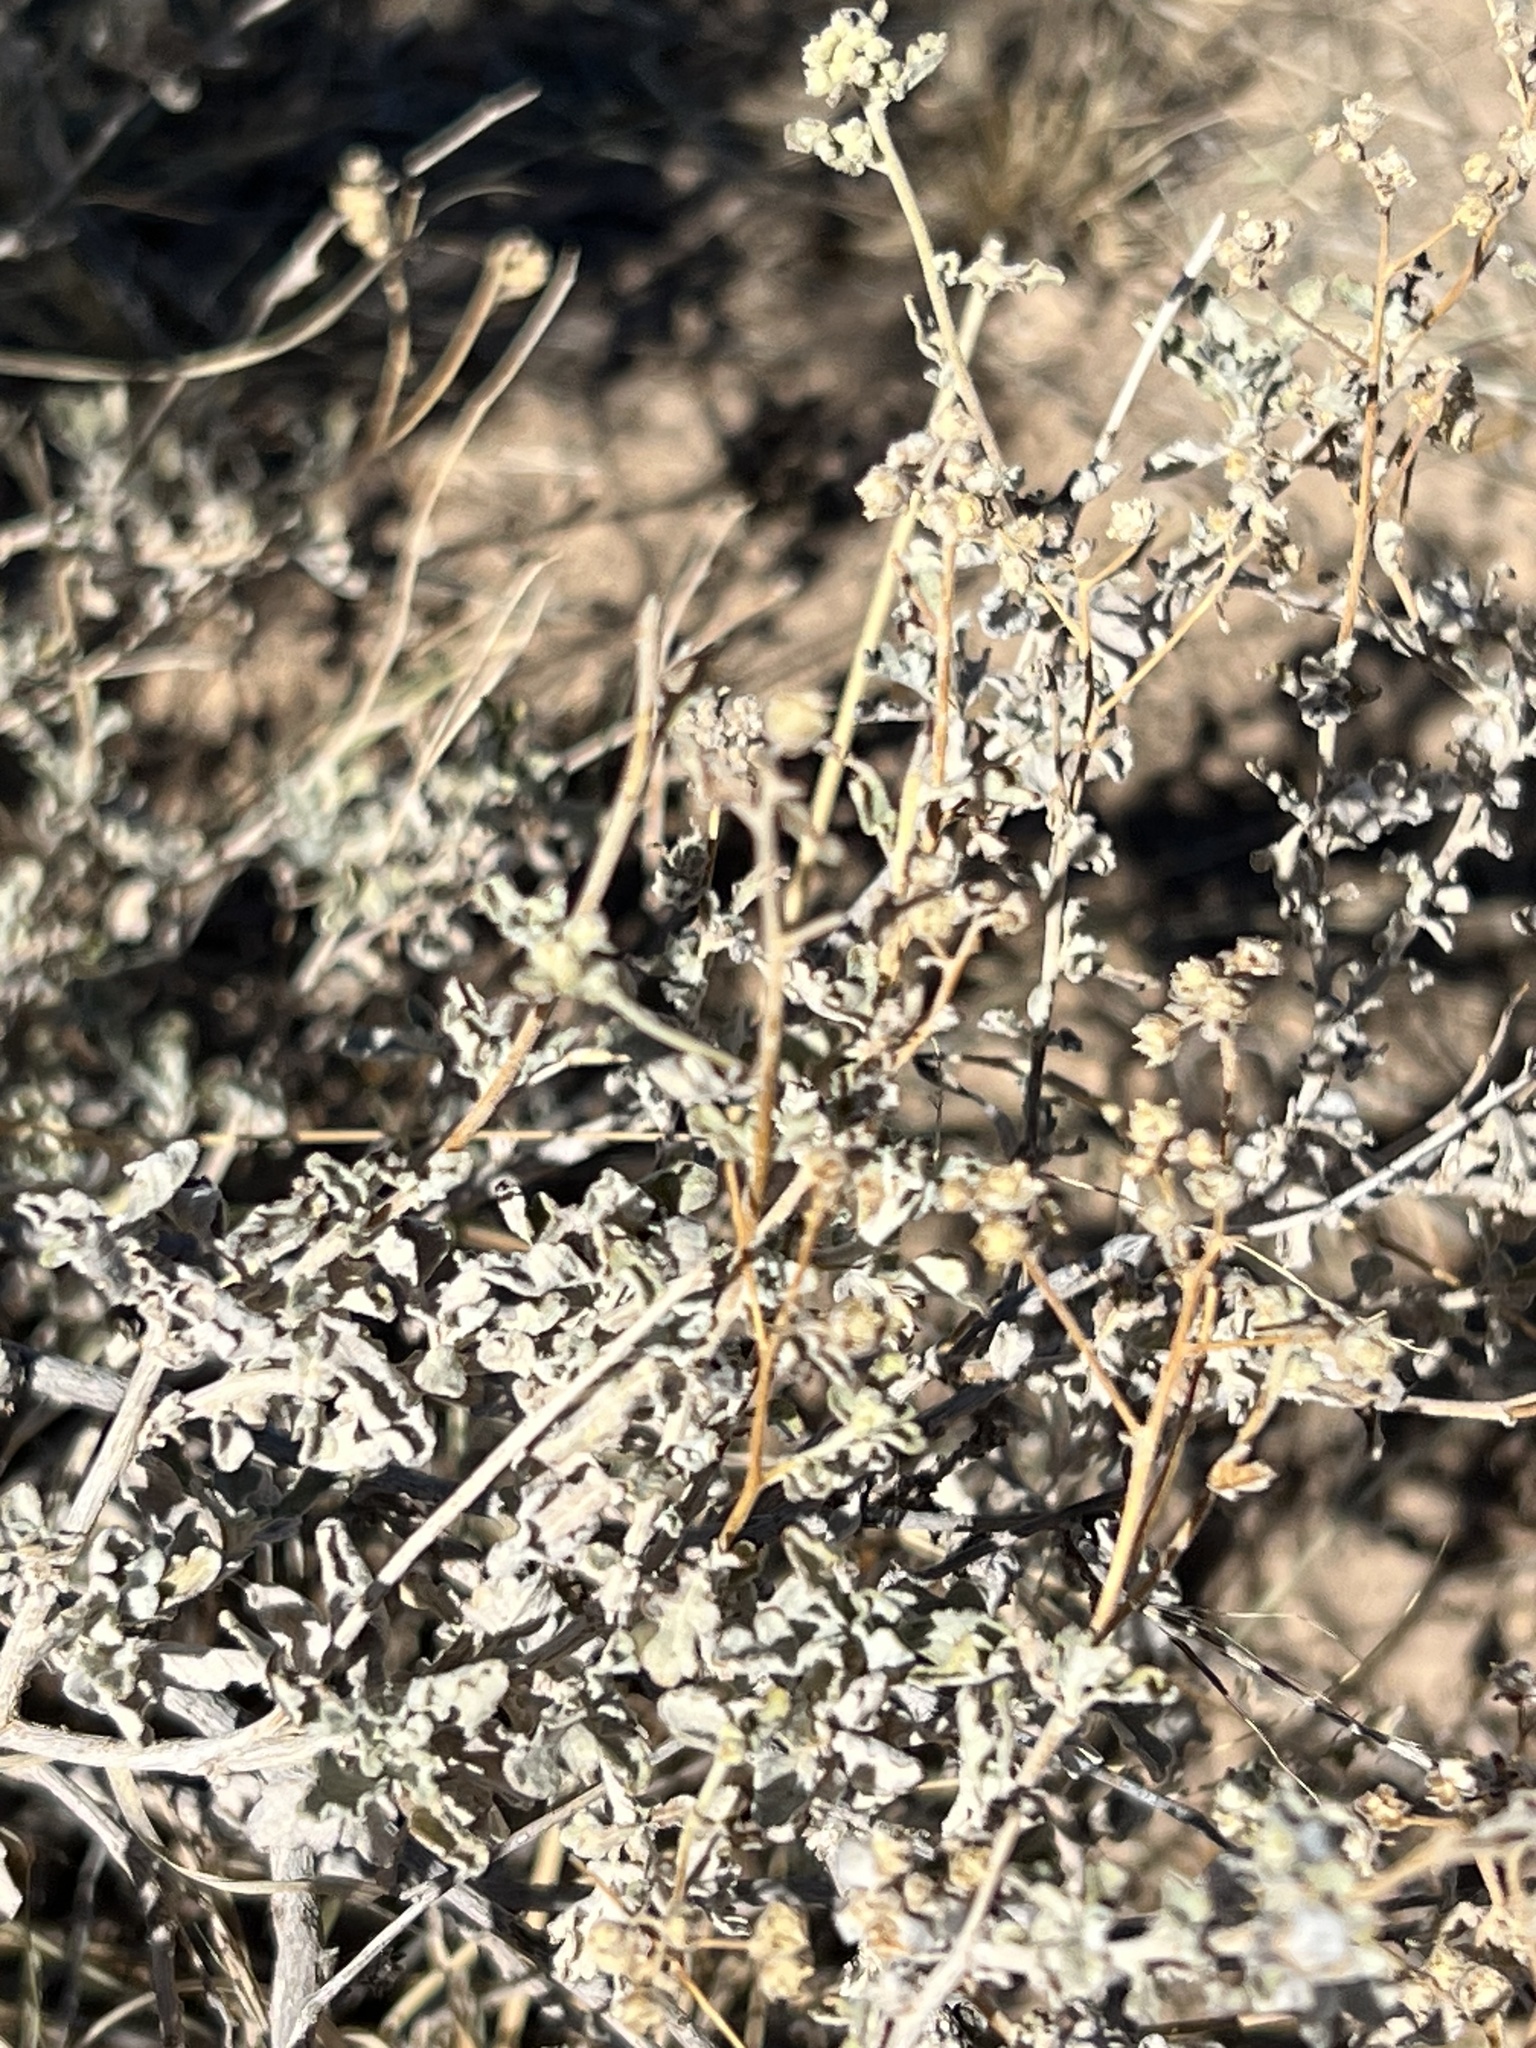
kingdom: Plantae
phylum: Tracheophyta
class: Magnoliopsida
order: Asterales
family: Asteraceae
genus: Parthenium
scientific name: Parthenium incanum
